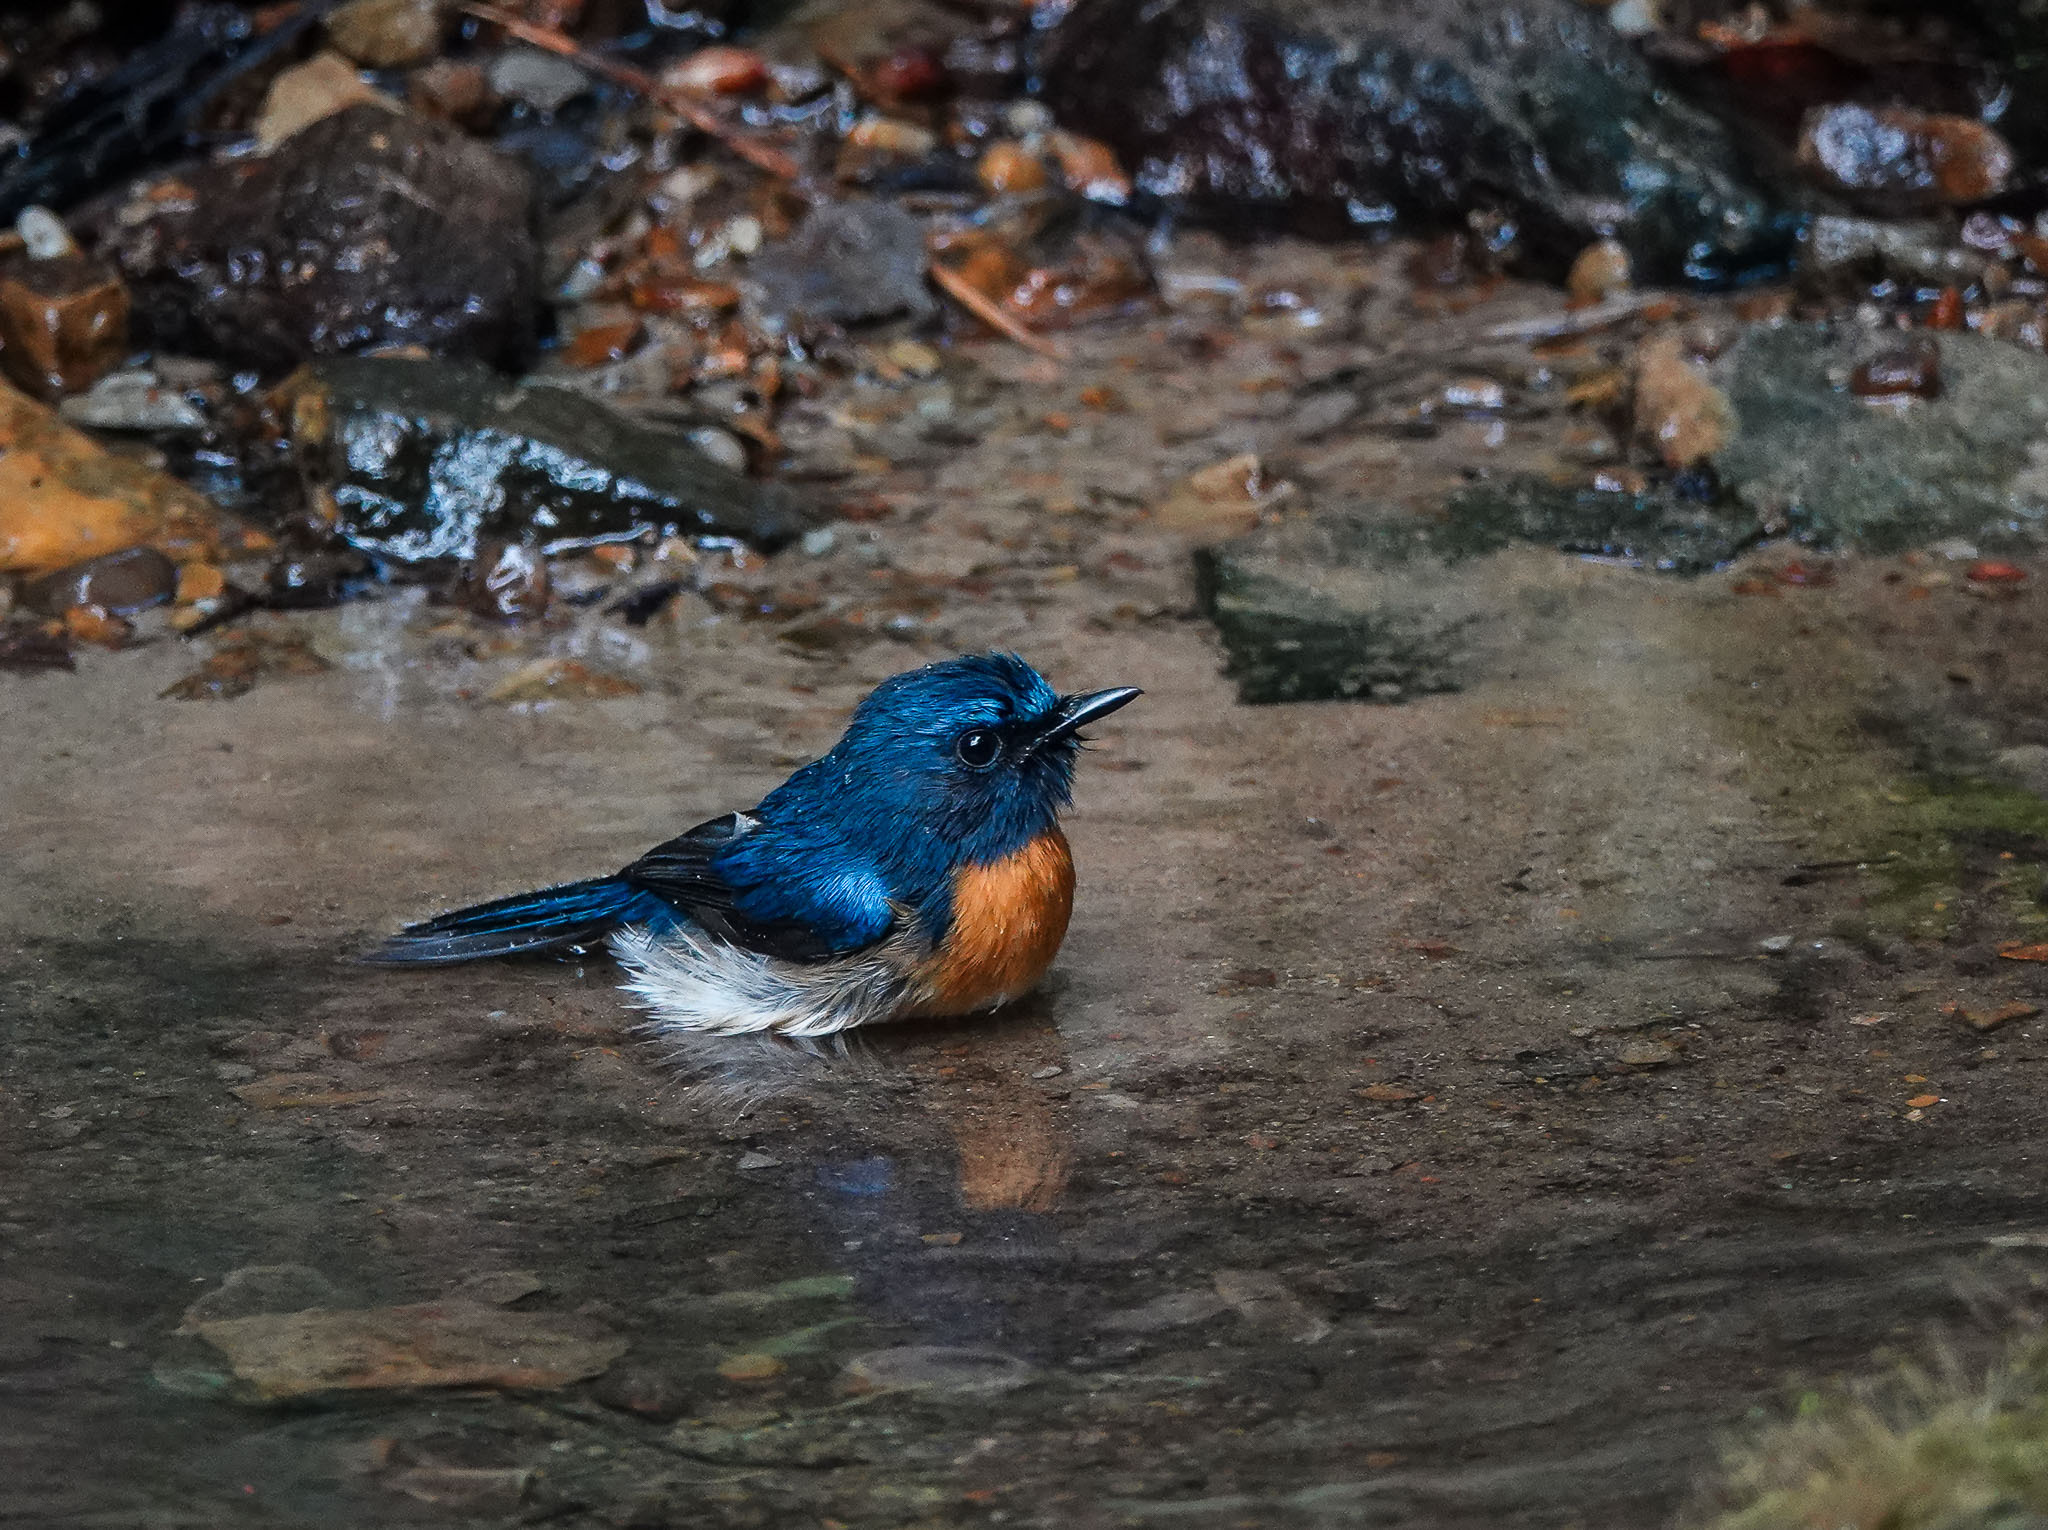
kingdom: Animalia
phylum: Chordata
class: Aves
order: Passeriformes
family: Muscicapidae
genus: Cyornis
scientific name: Cyornis rubeculoides
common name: Blue-throated blue flycatcher
